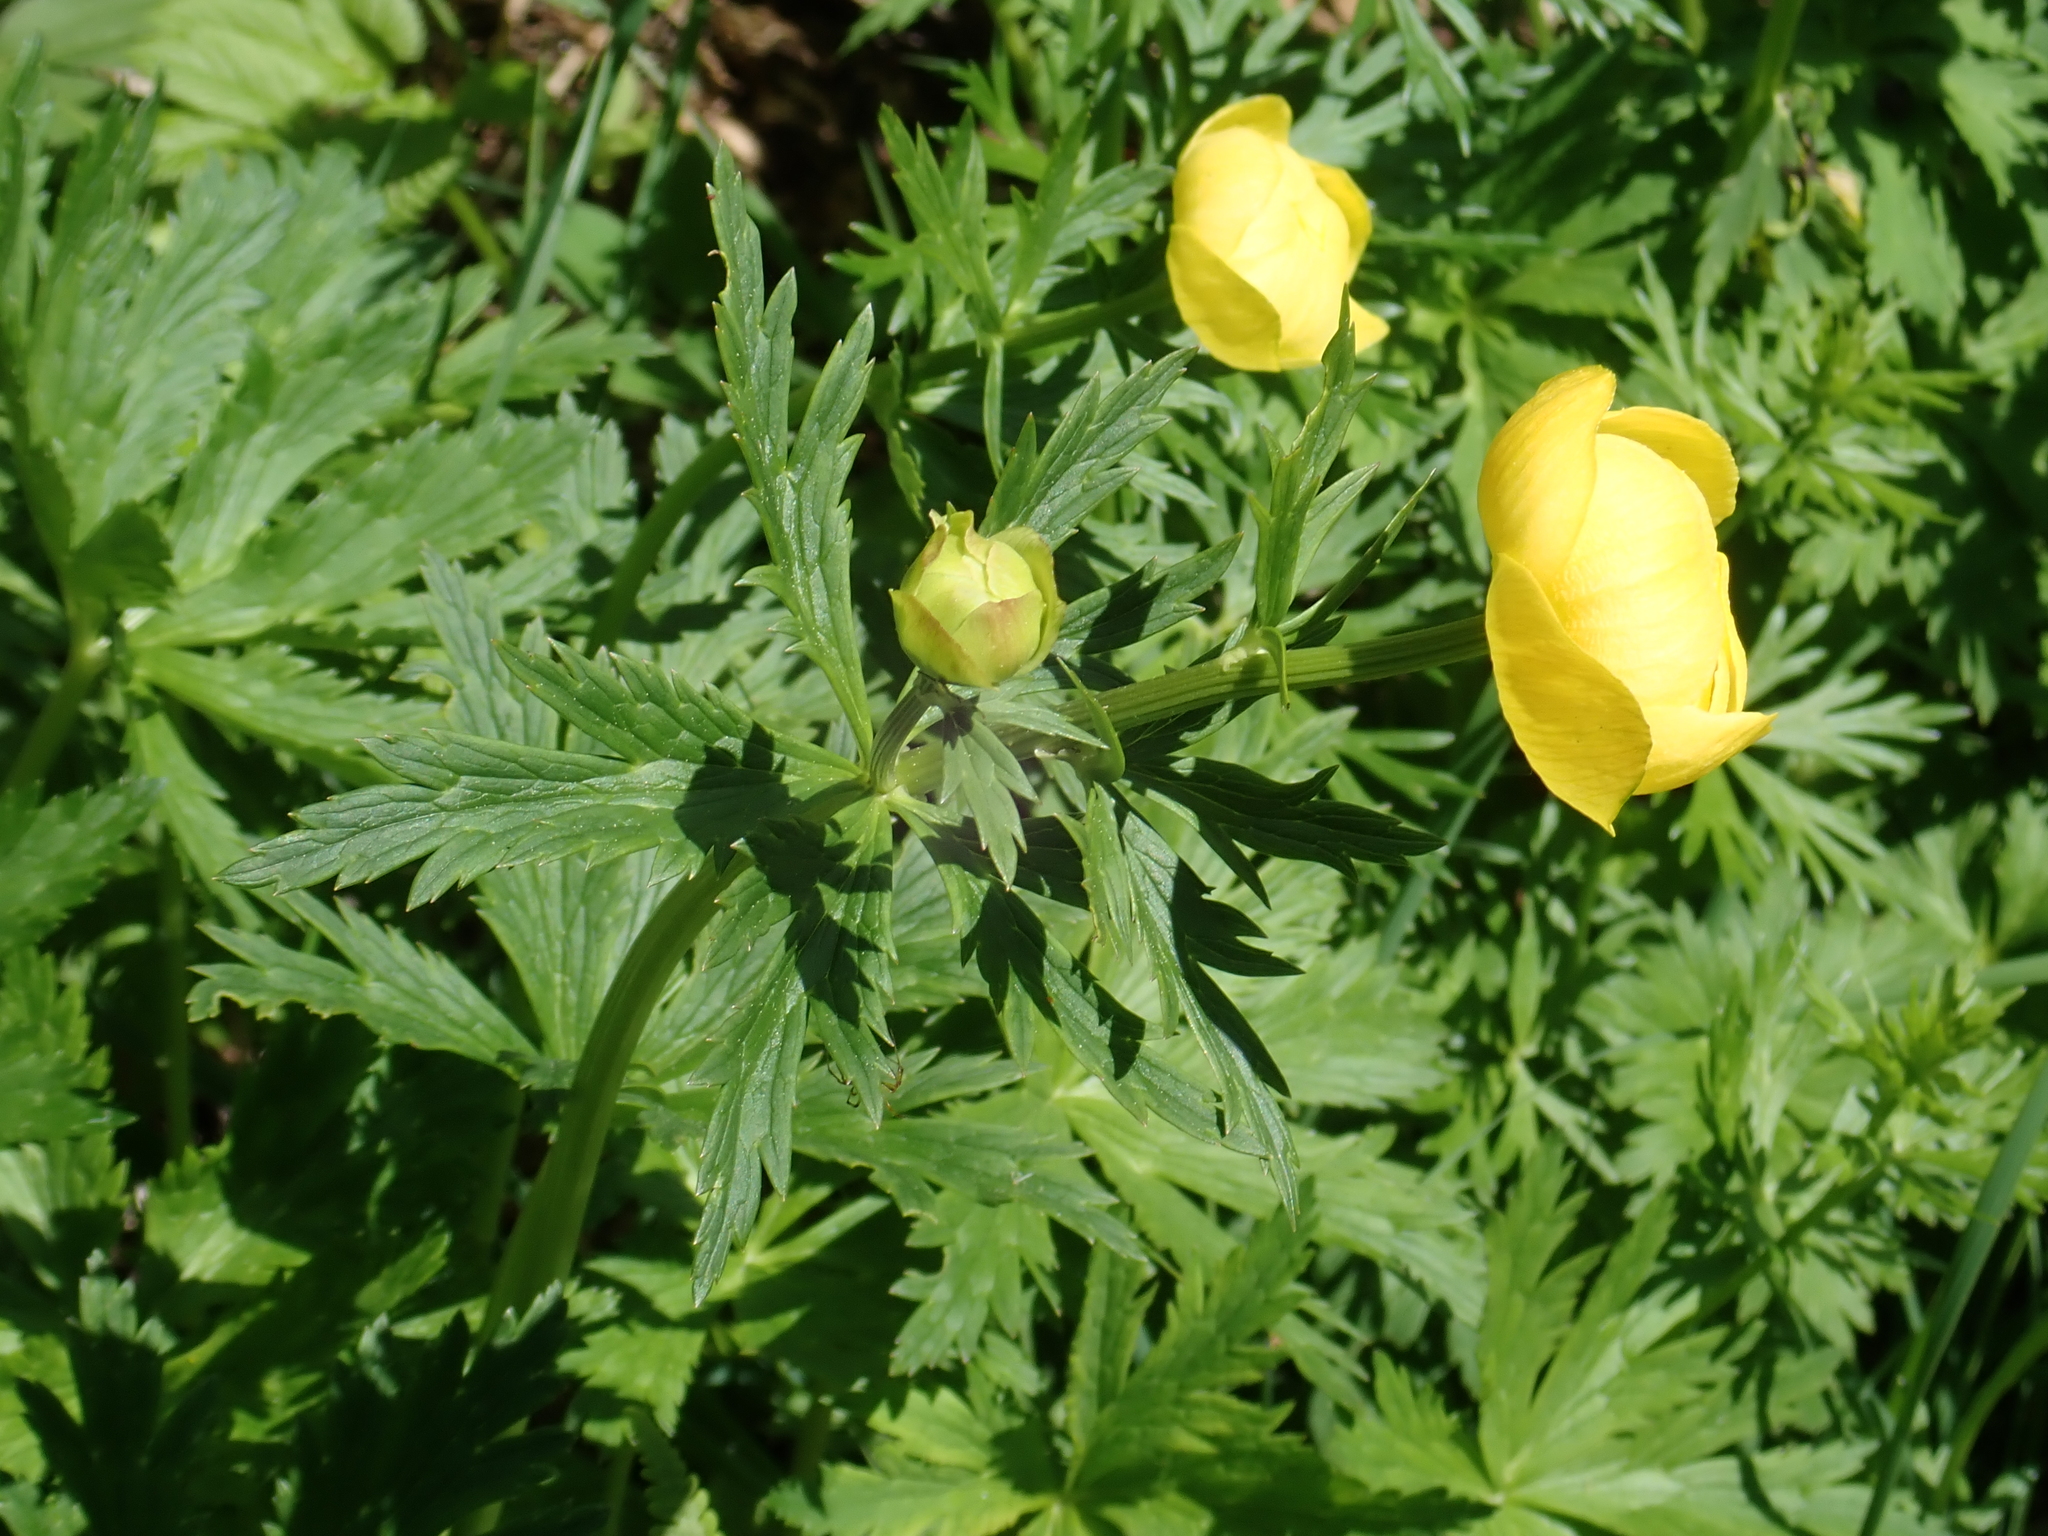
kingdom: Plantae
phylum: Tracheophyta
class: Magnoliopsida
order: Ranunculales
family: Ranunculaceae
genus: Trollius
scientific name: Trollius europaeus
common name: European globeflower
